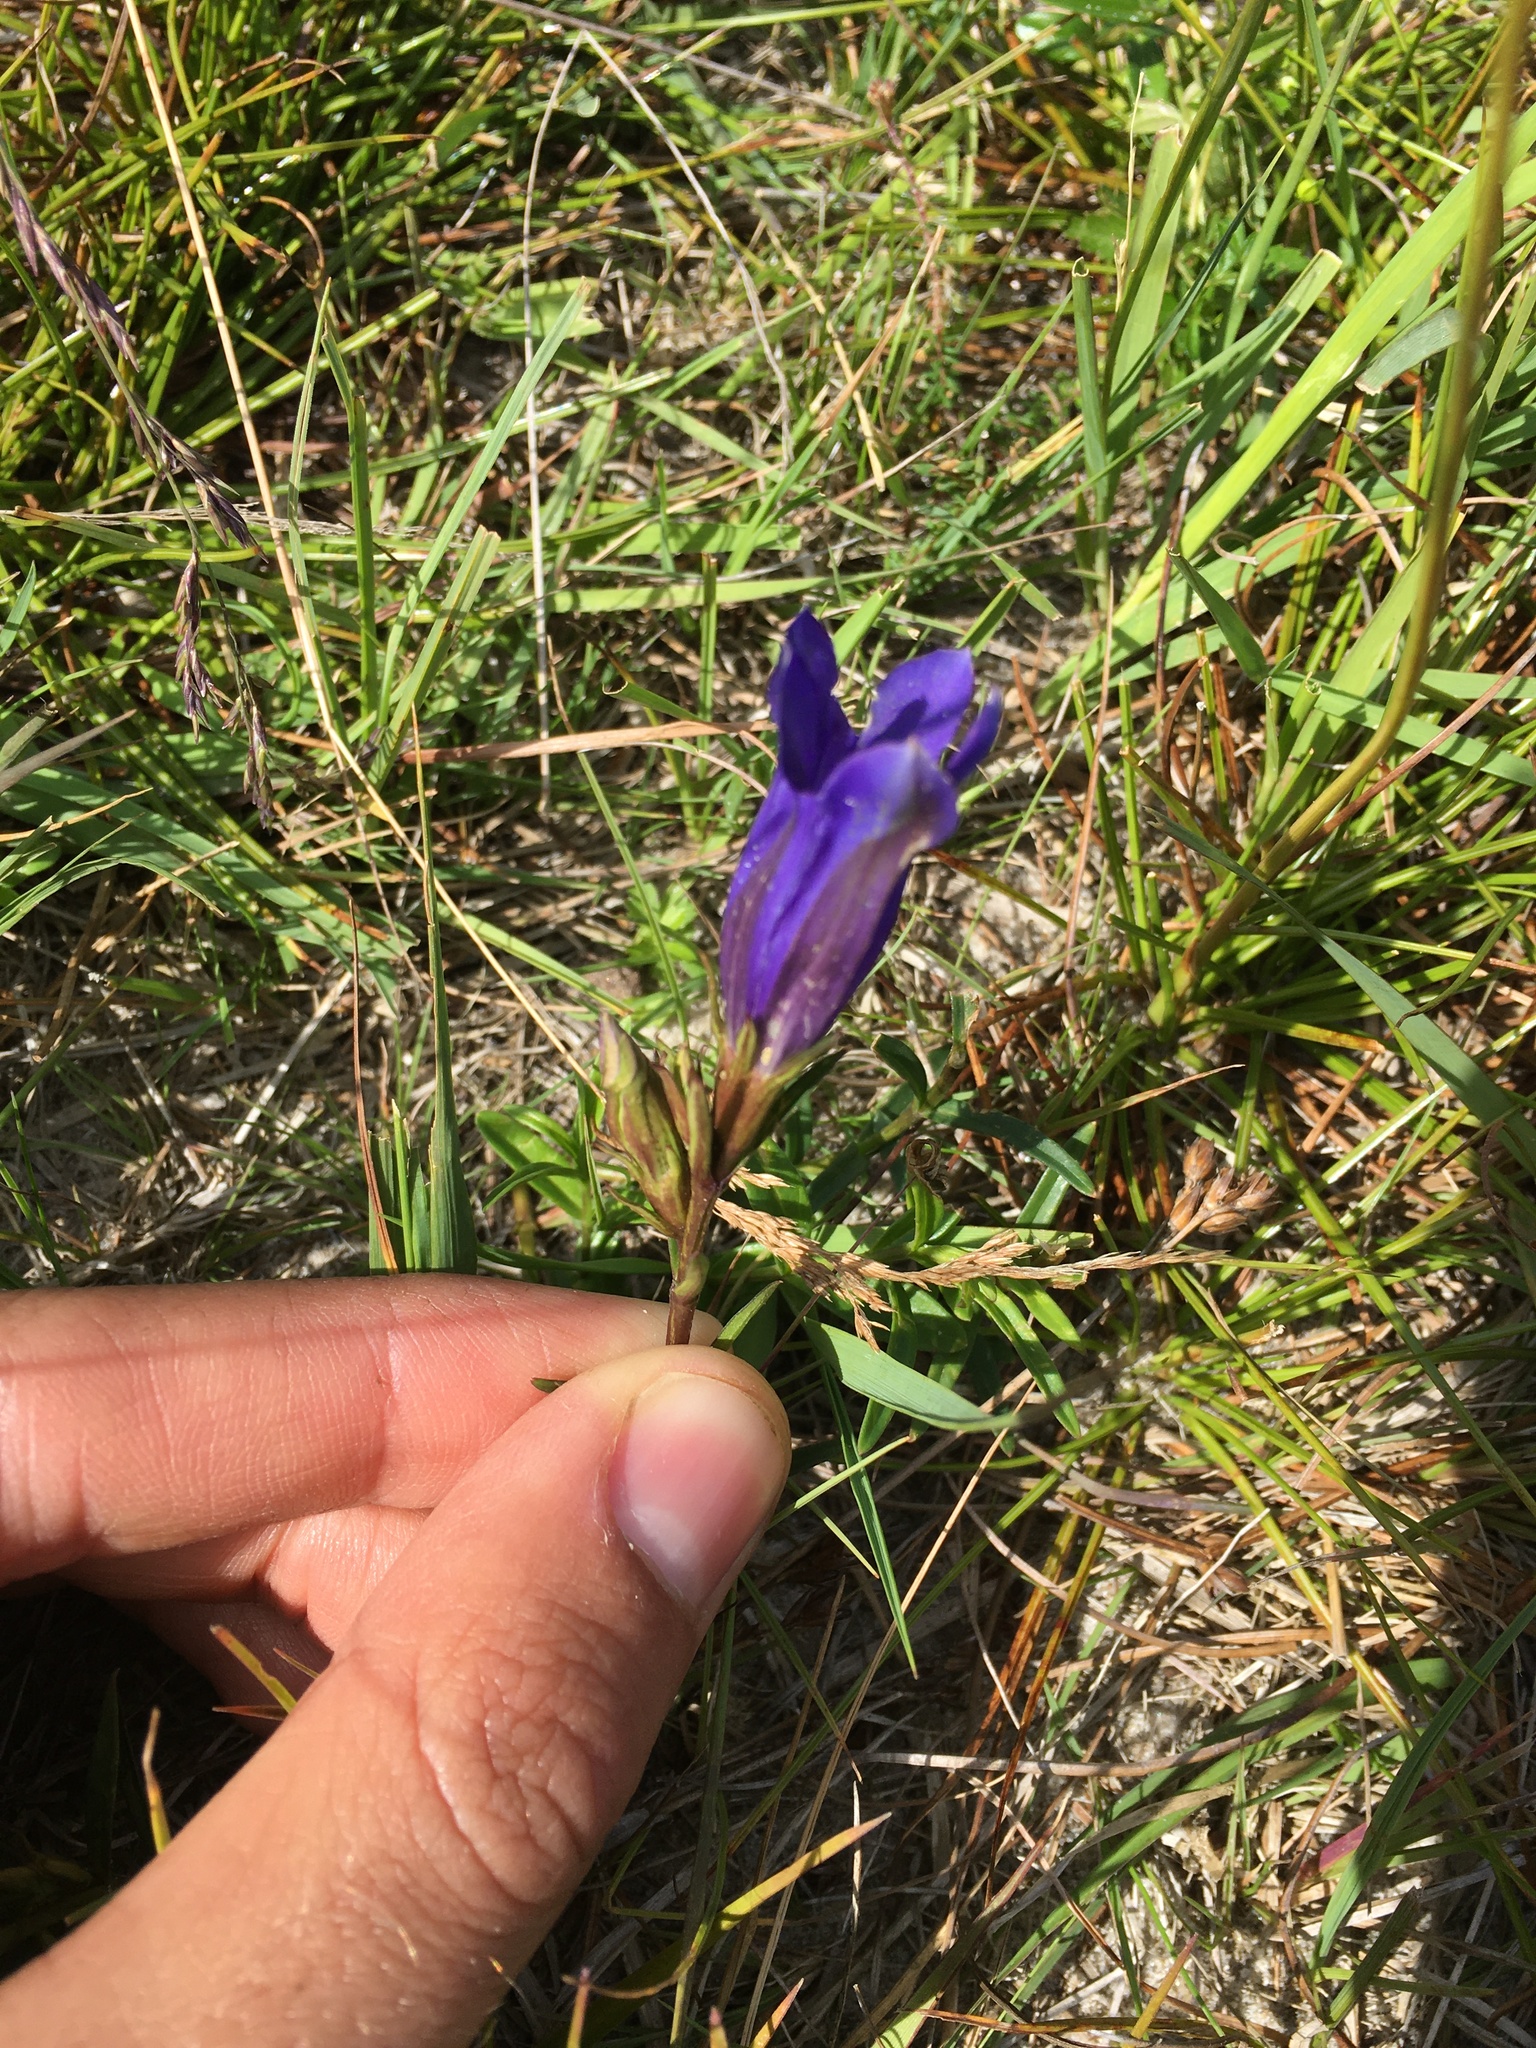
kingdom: Plantae
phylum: Tracheophyta
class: Magnoliopsida
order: Gentianales
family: Gentianaceae
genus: Gentiana
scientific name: Gentiana pneumonanthe
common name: Marsh gentian
